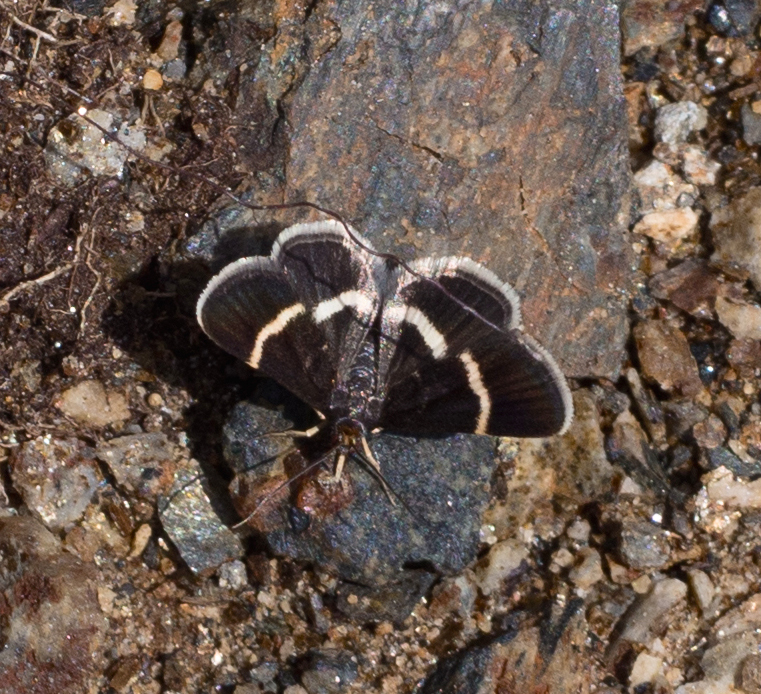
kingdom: Animalia
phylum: Arthropoda
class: Insecta
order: Lepidoptera
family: Crambidae
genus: Pyrausta
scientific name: Pyrausta cingulata
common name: Silver-barred sable
